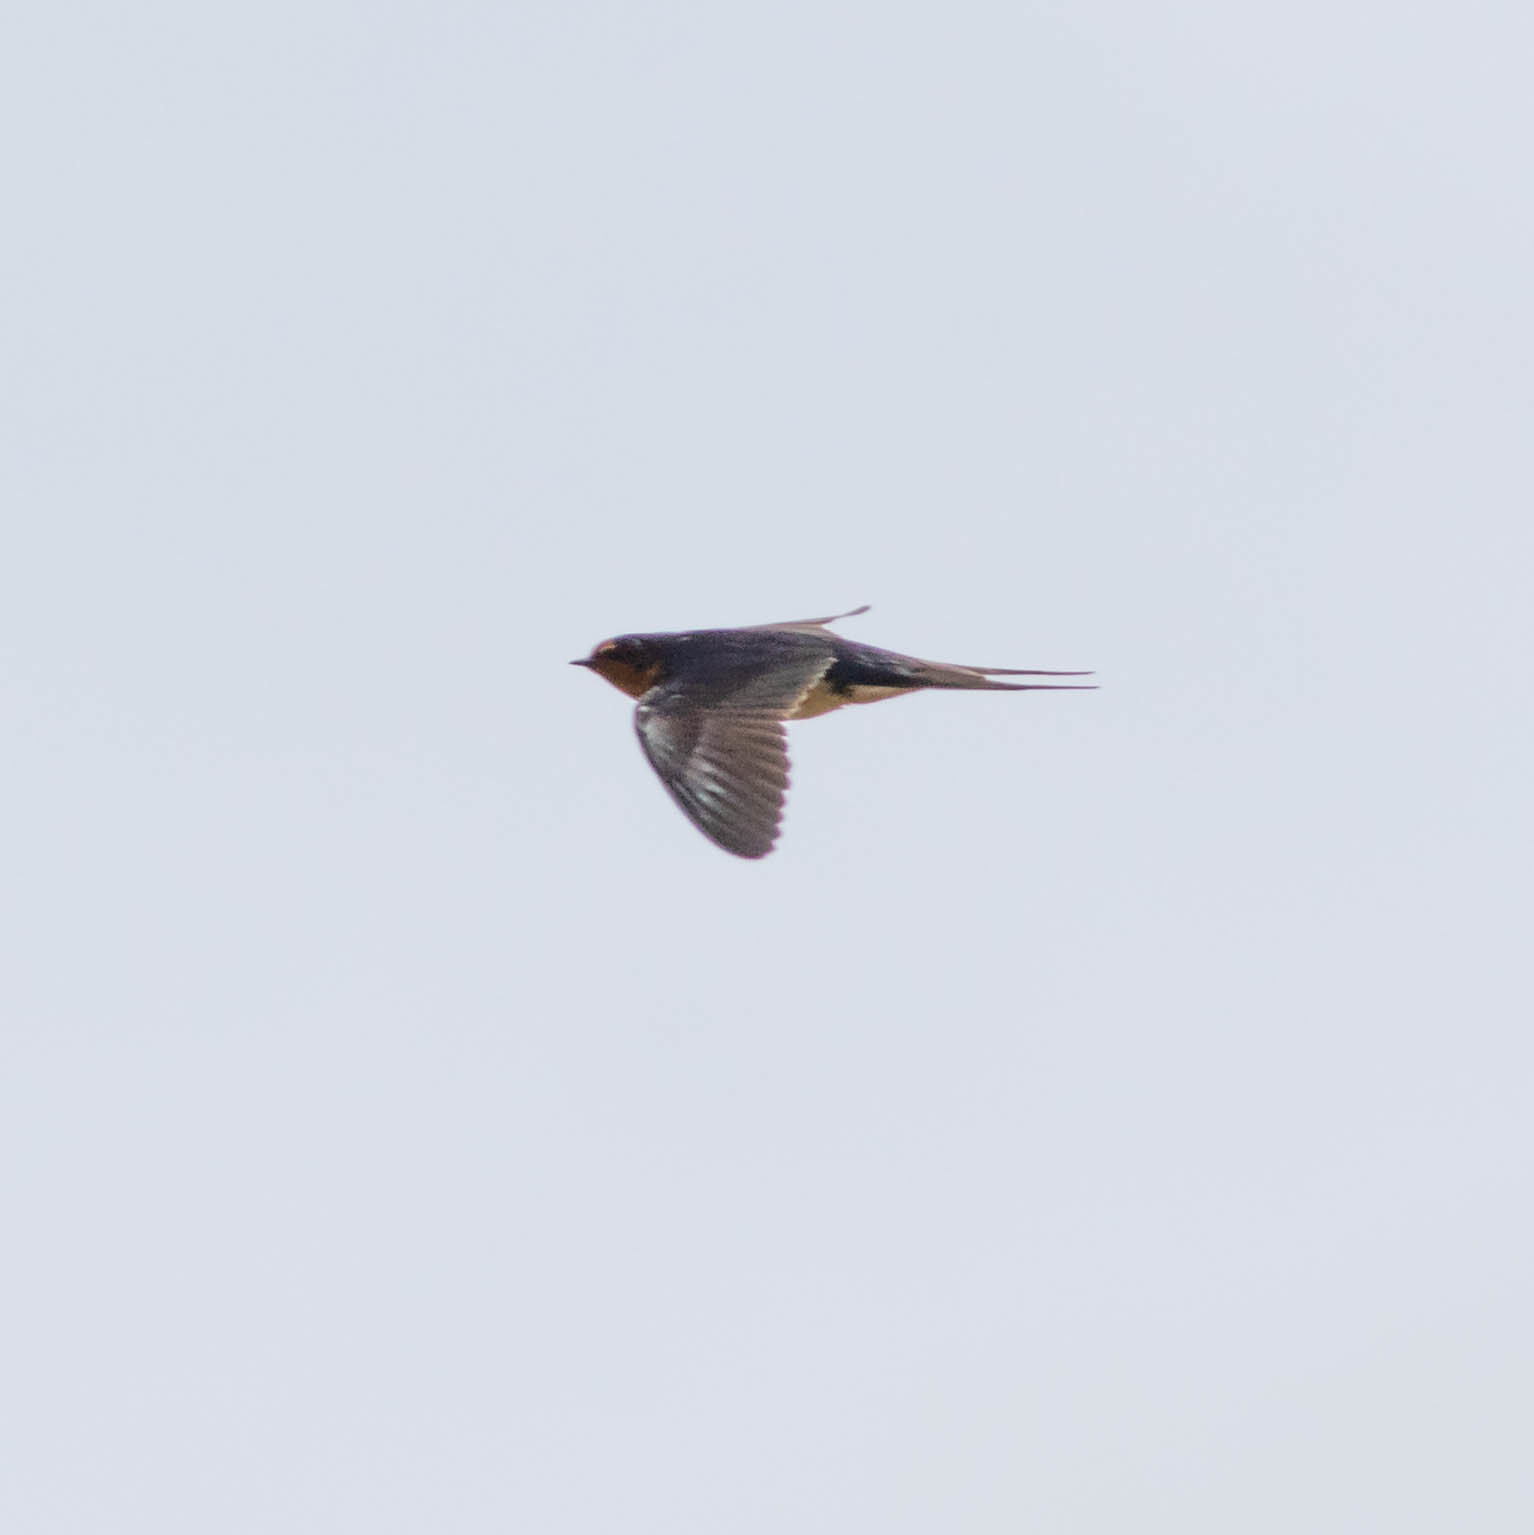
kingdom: Animalia
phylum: Chordata
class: Aves
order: Passeriformes
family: Hirundinidae
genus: Hirundo
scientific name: Hirundo rustica
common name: Barn swallow
